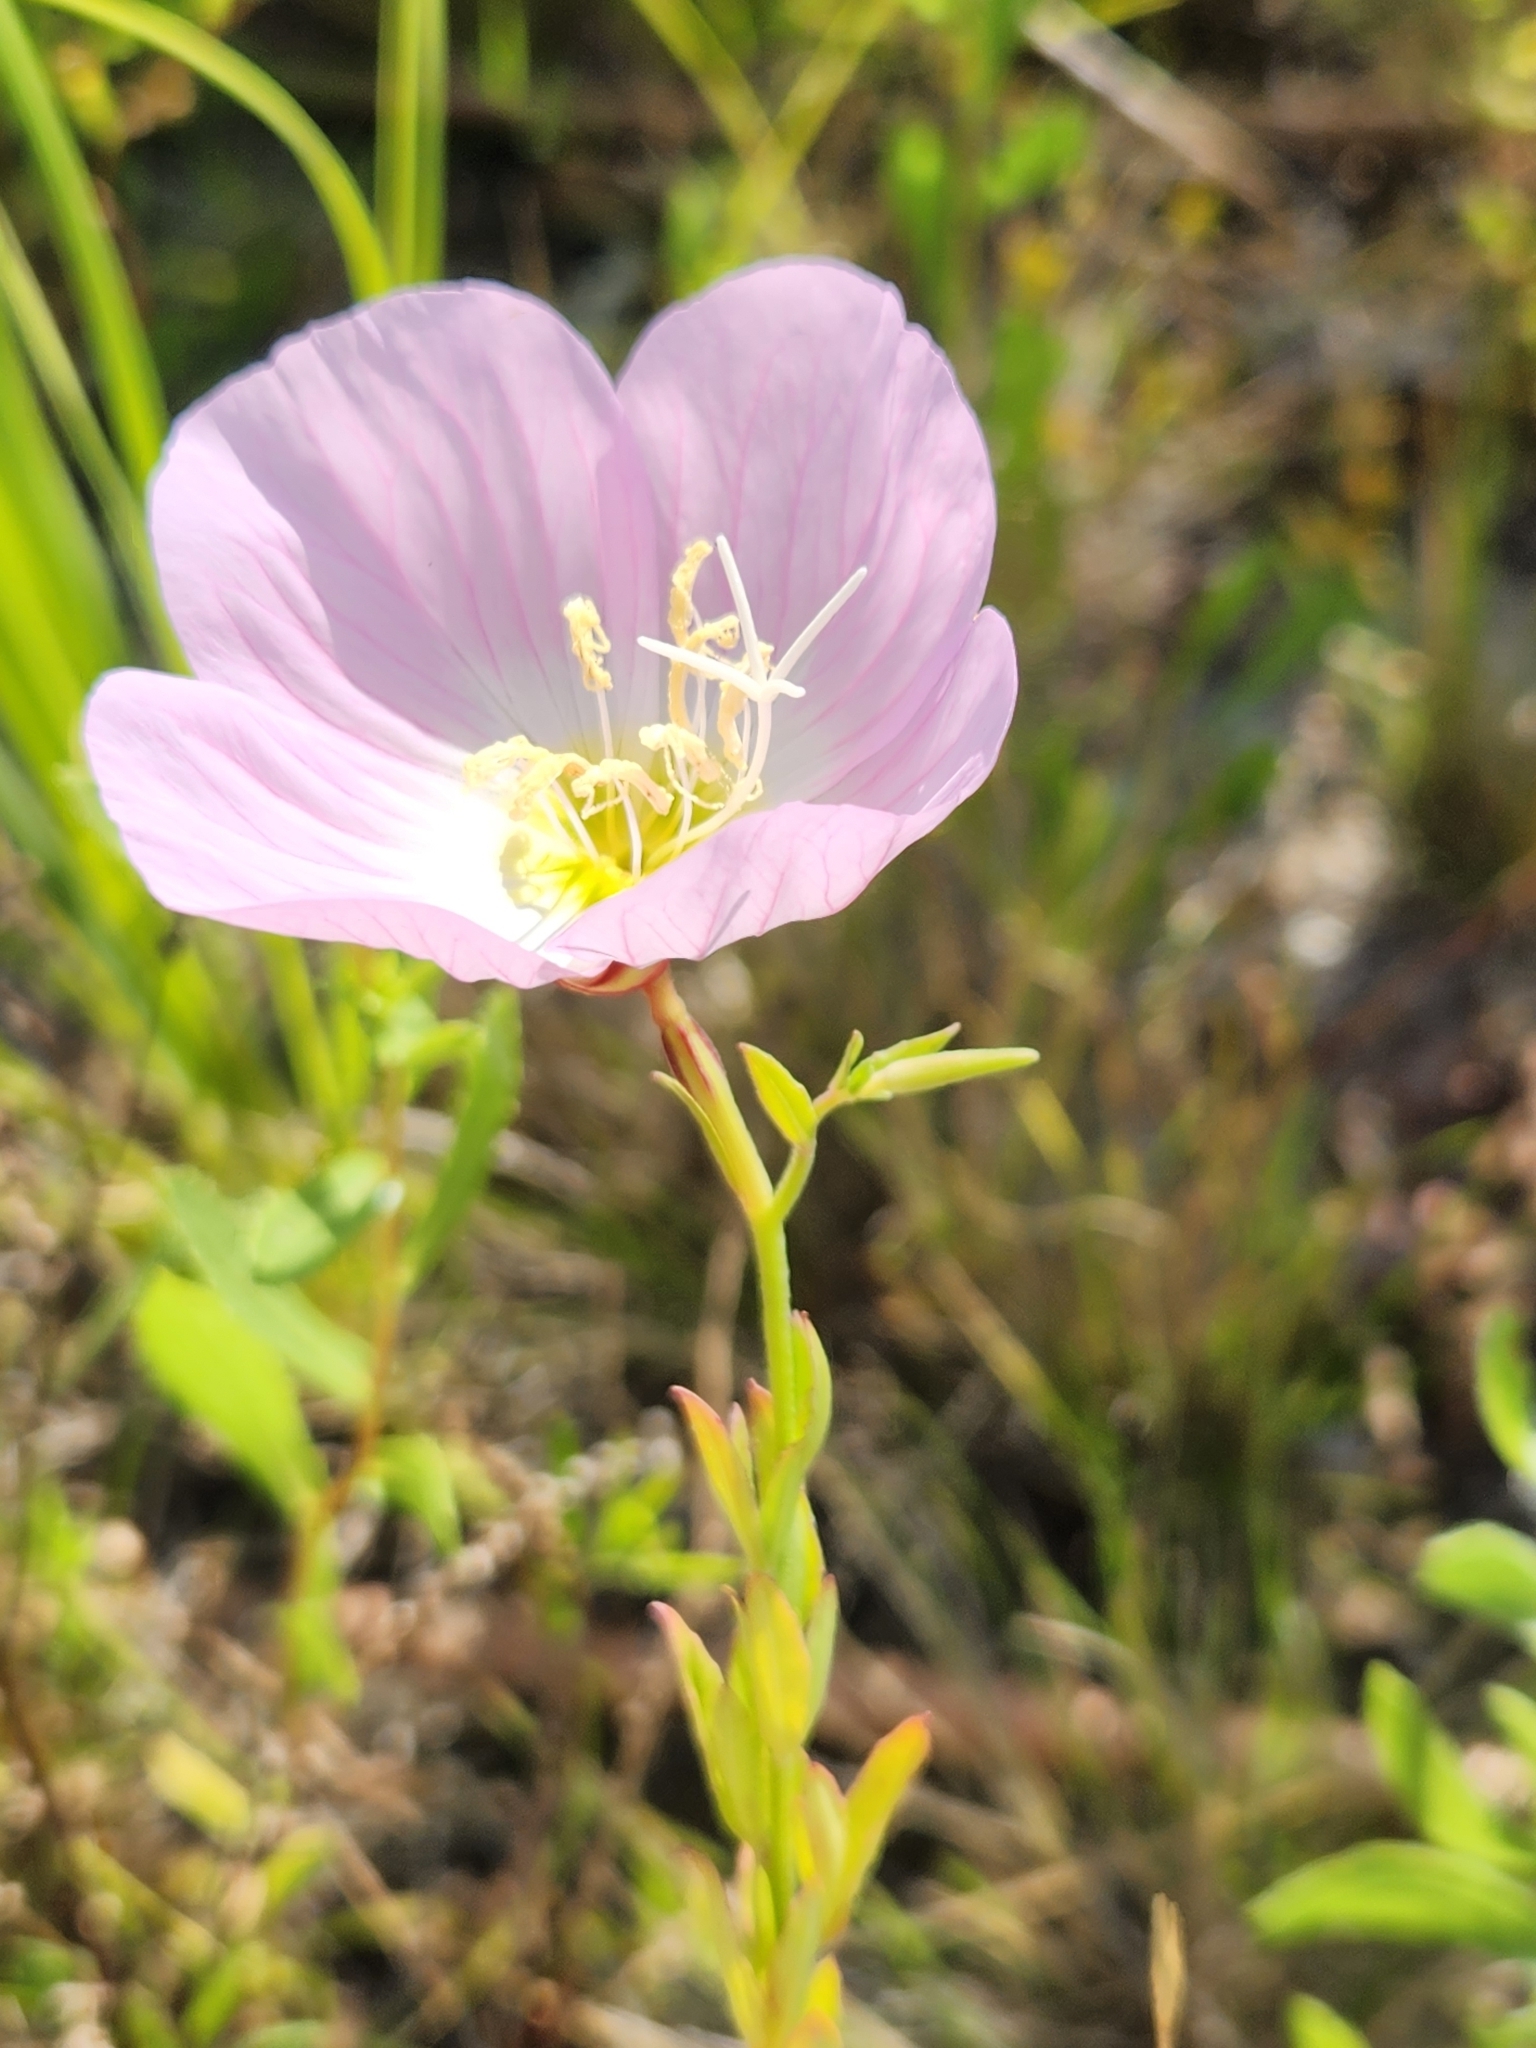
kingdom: Plantae
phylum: Tracheophyta
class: Magnoliopsida
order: Myrtales
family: Onagraceae
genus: Oenothera
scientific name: Oenothera speciosa
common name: White evening-primrose
